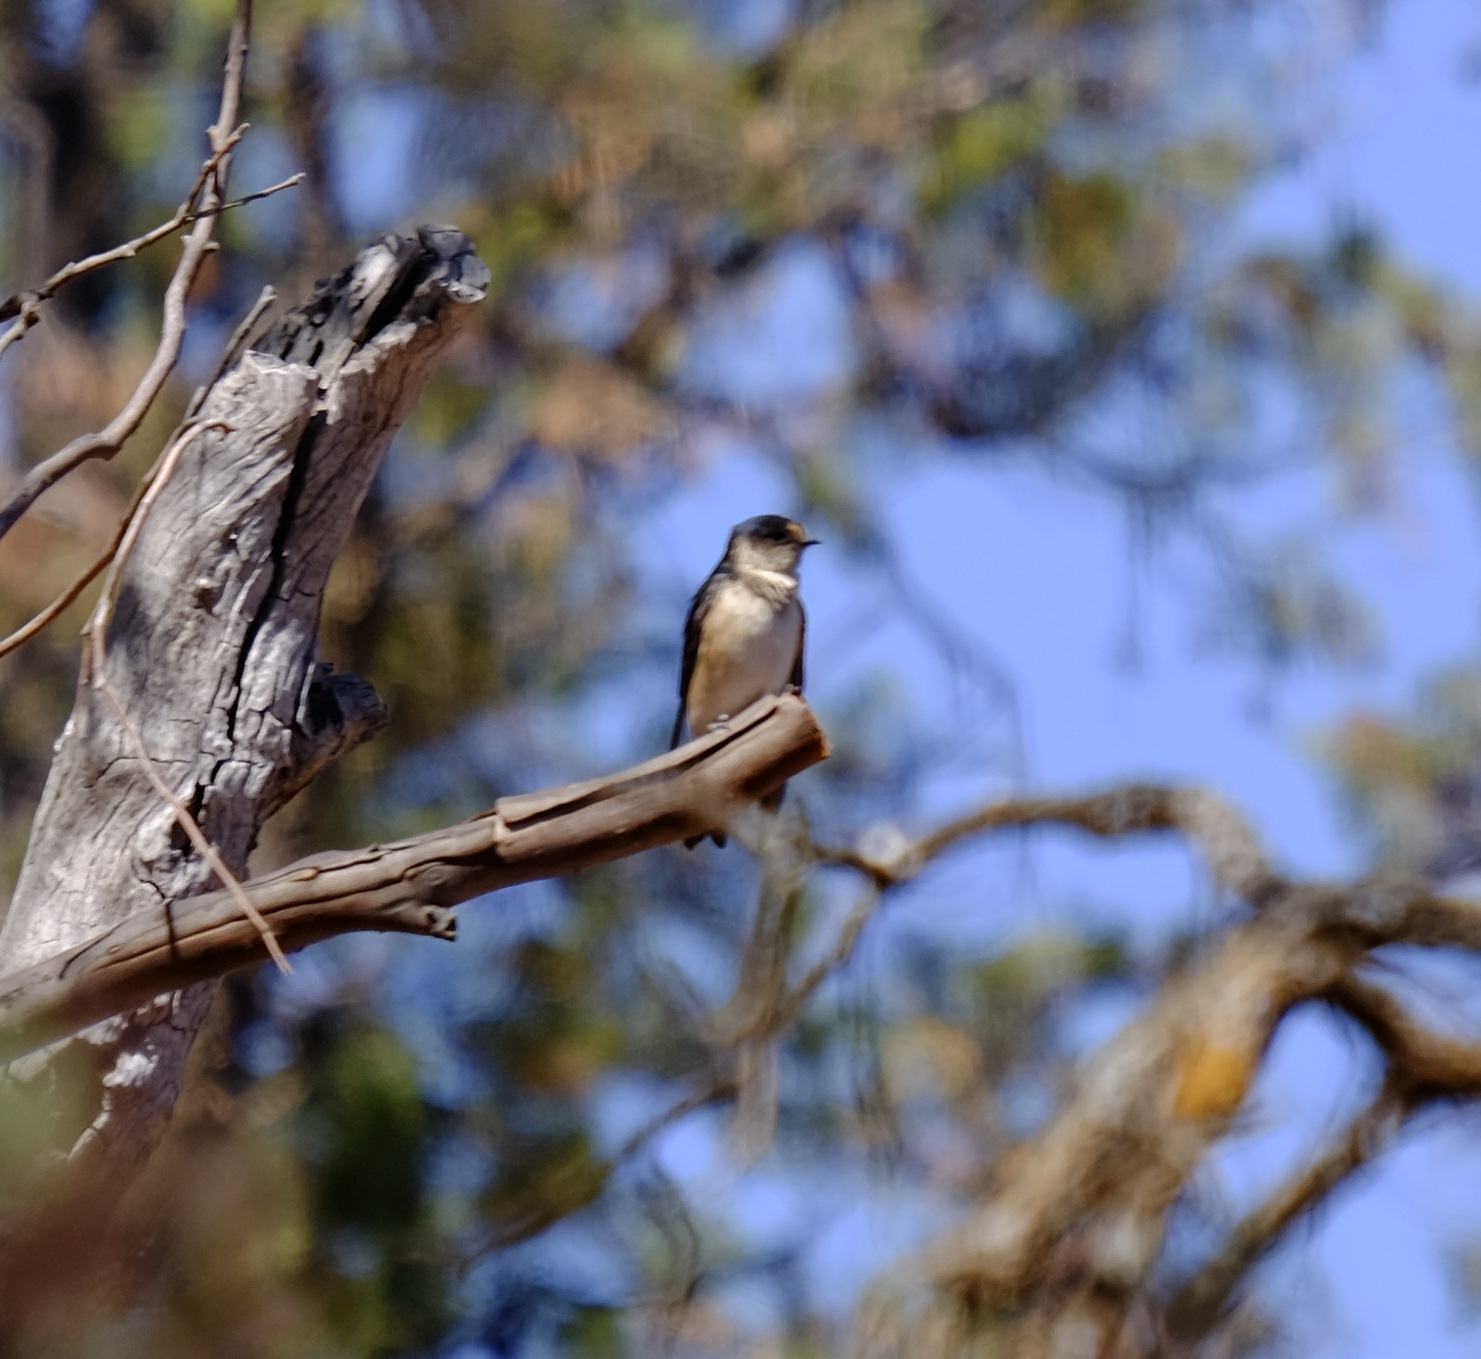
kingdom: Animalia
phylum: Chordata
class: Aves
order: Passeriformes
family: Hirundinidae
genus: Petrochelidon
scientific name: Petrochelidon nigricans
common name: Tree martin
